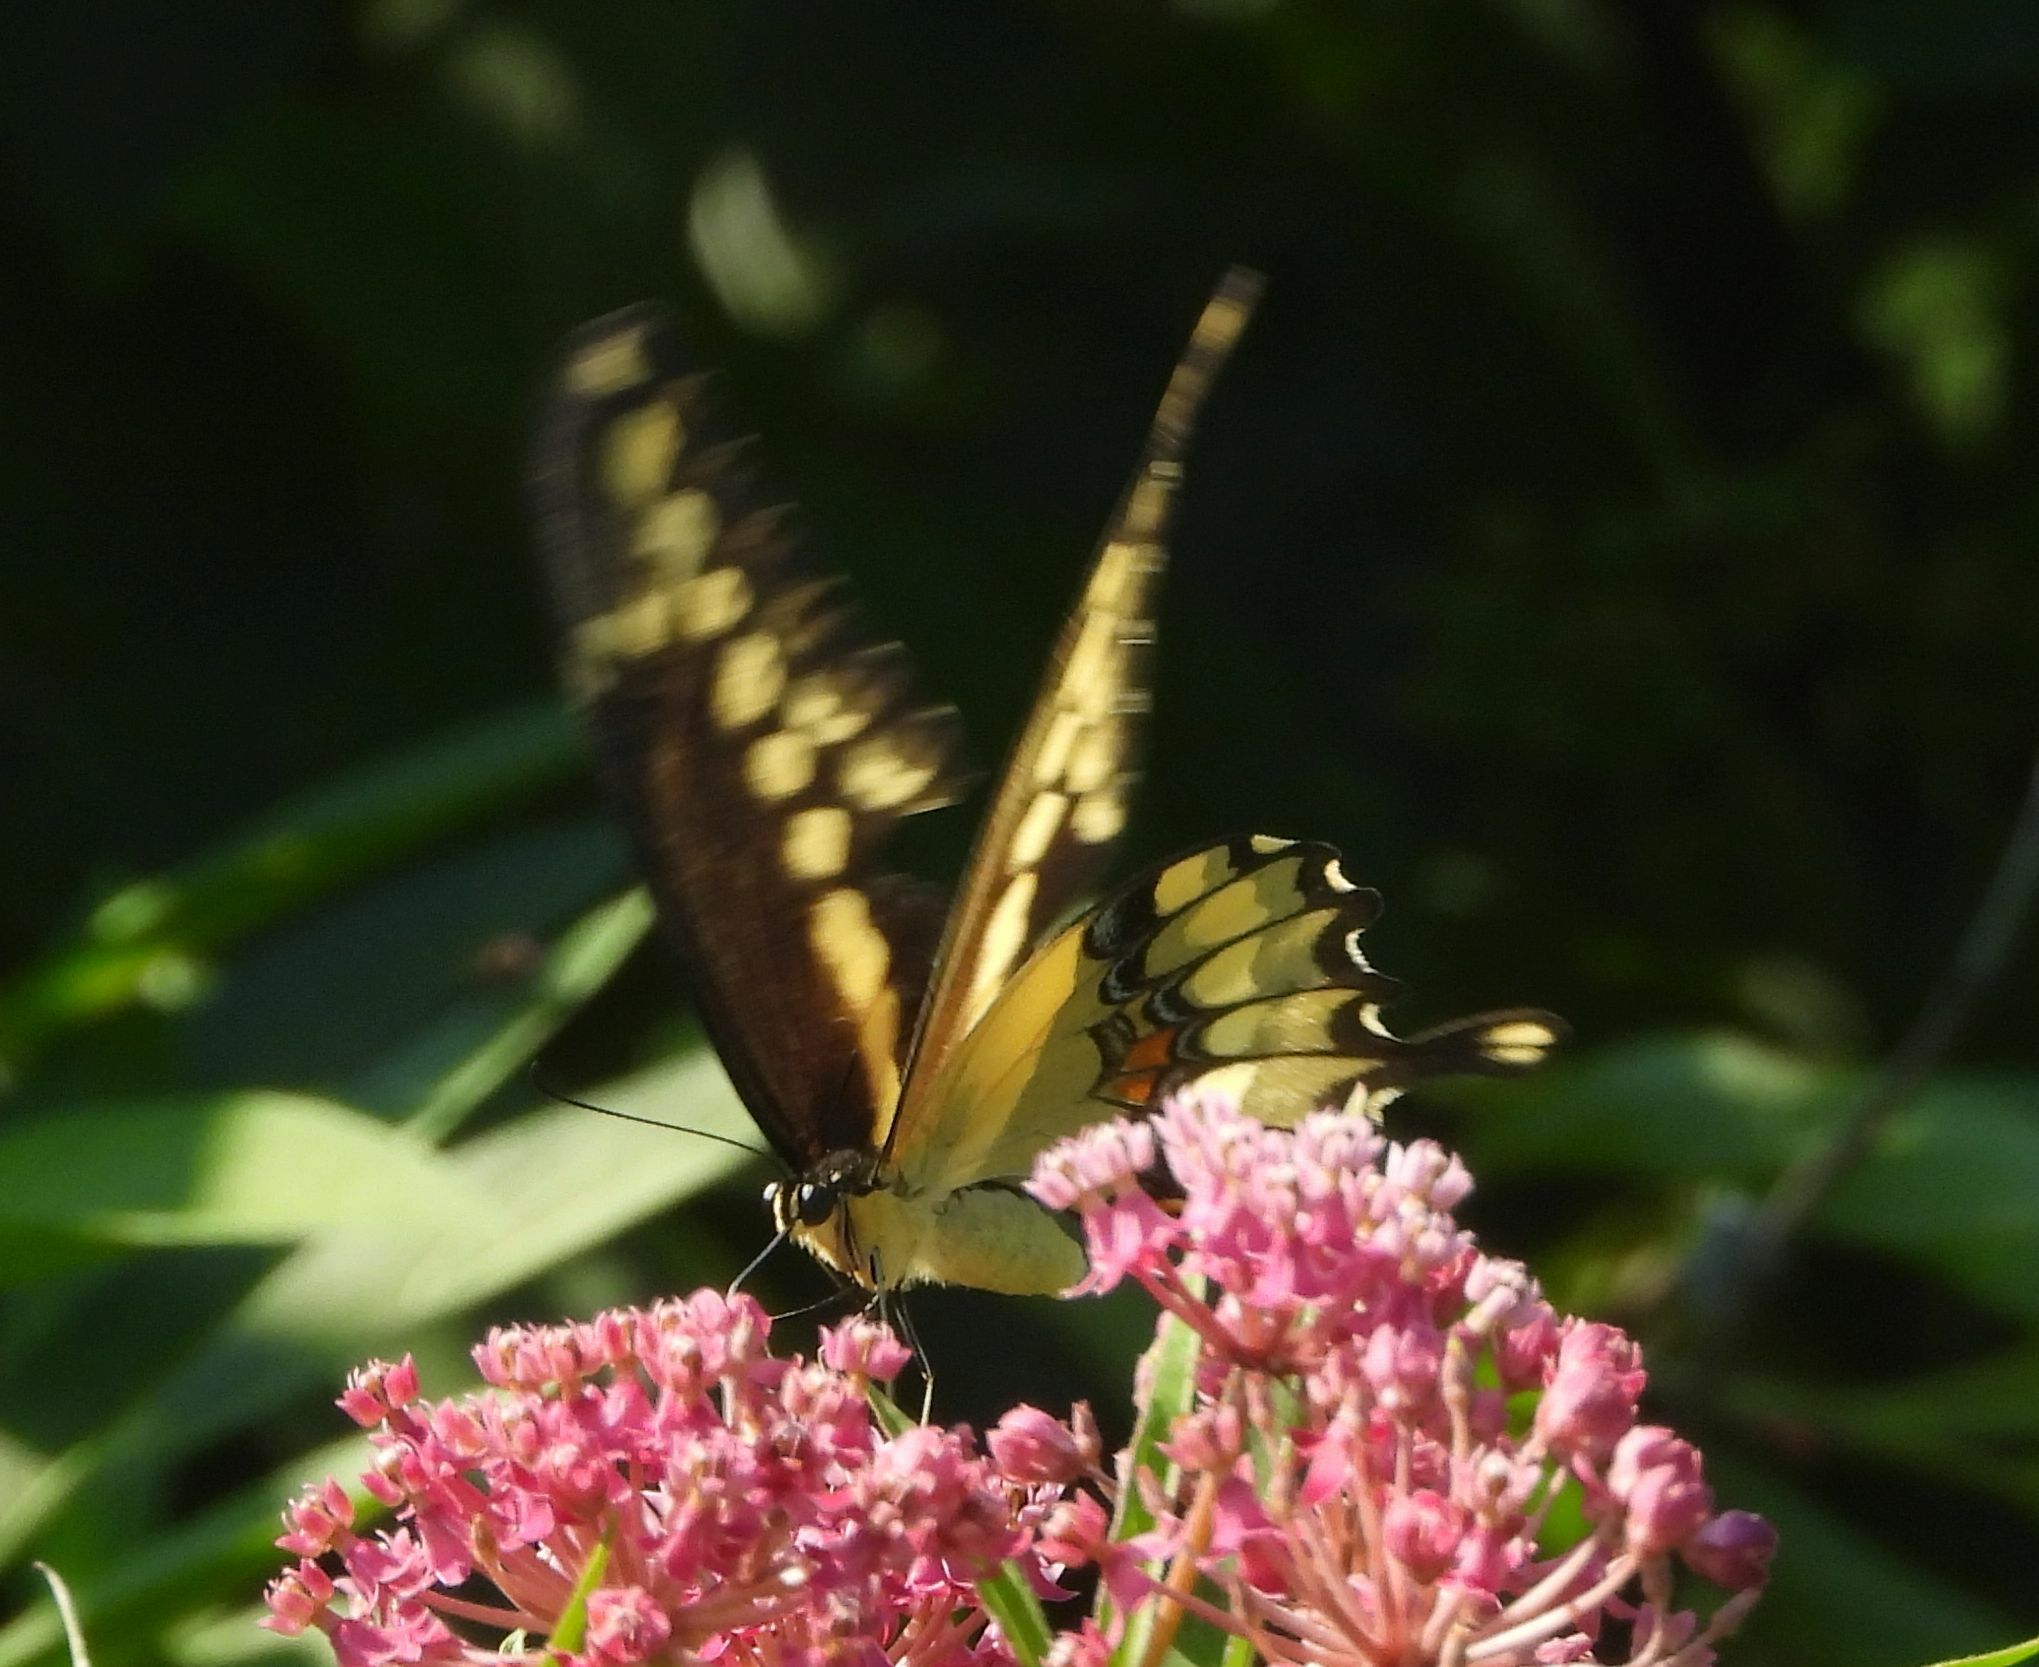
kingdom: Animalia
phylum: Arthropoda
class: Insecta
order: Lepidoptera
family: Papilionidae
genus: Papilio
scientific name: Papilio cresphontes
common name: Giant swallowtail
